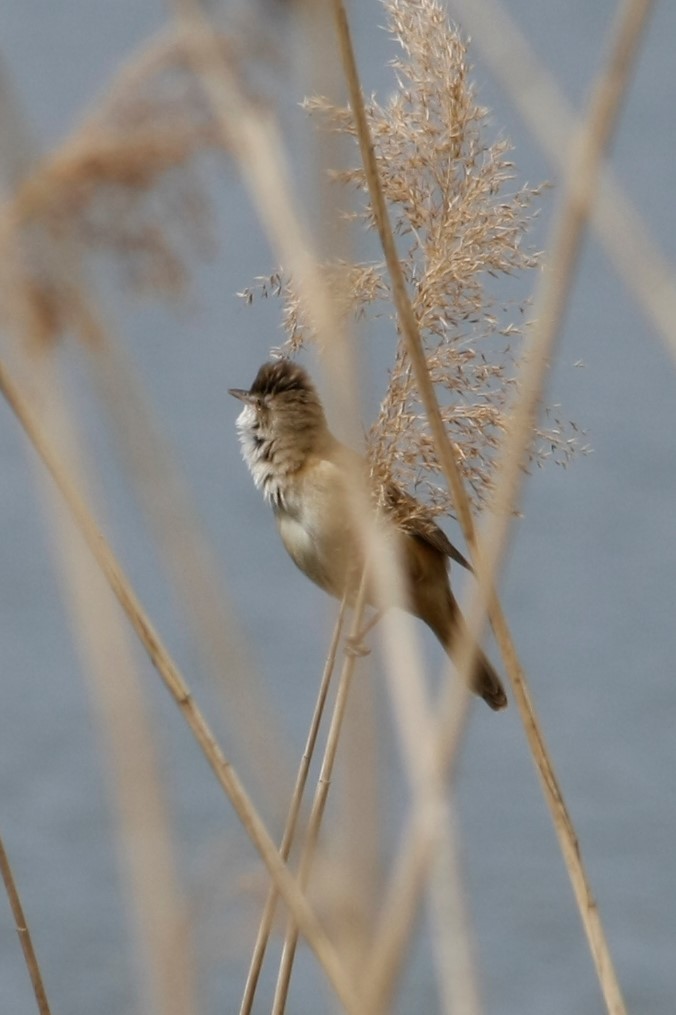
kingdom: Animalia
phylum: Chordata
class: Aves
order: Passeriformes
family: Acrocephalidae
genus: Acrocephalus
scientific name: Acrocephalus arundinaceus
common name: Great reed warbler
